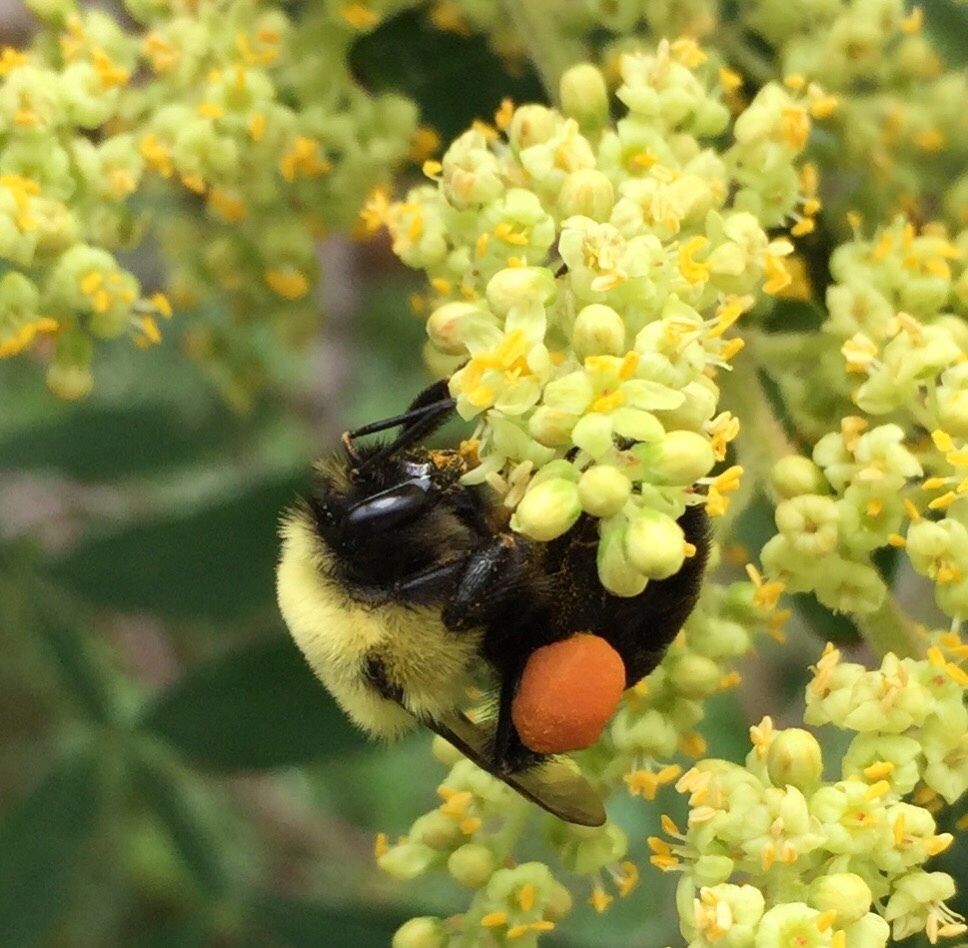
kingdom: Animalia
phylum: Arthropoda
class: Insecta
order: Hymenoptera
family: Apidae
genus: Bombus
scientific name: Bombus impatiens
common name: Common eastern bumble bee
